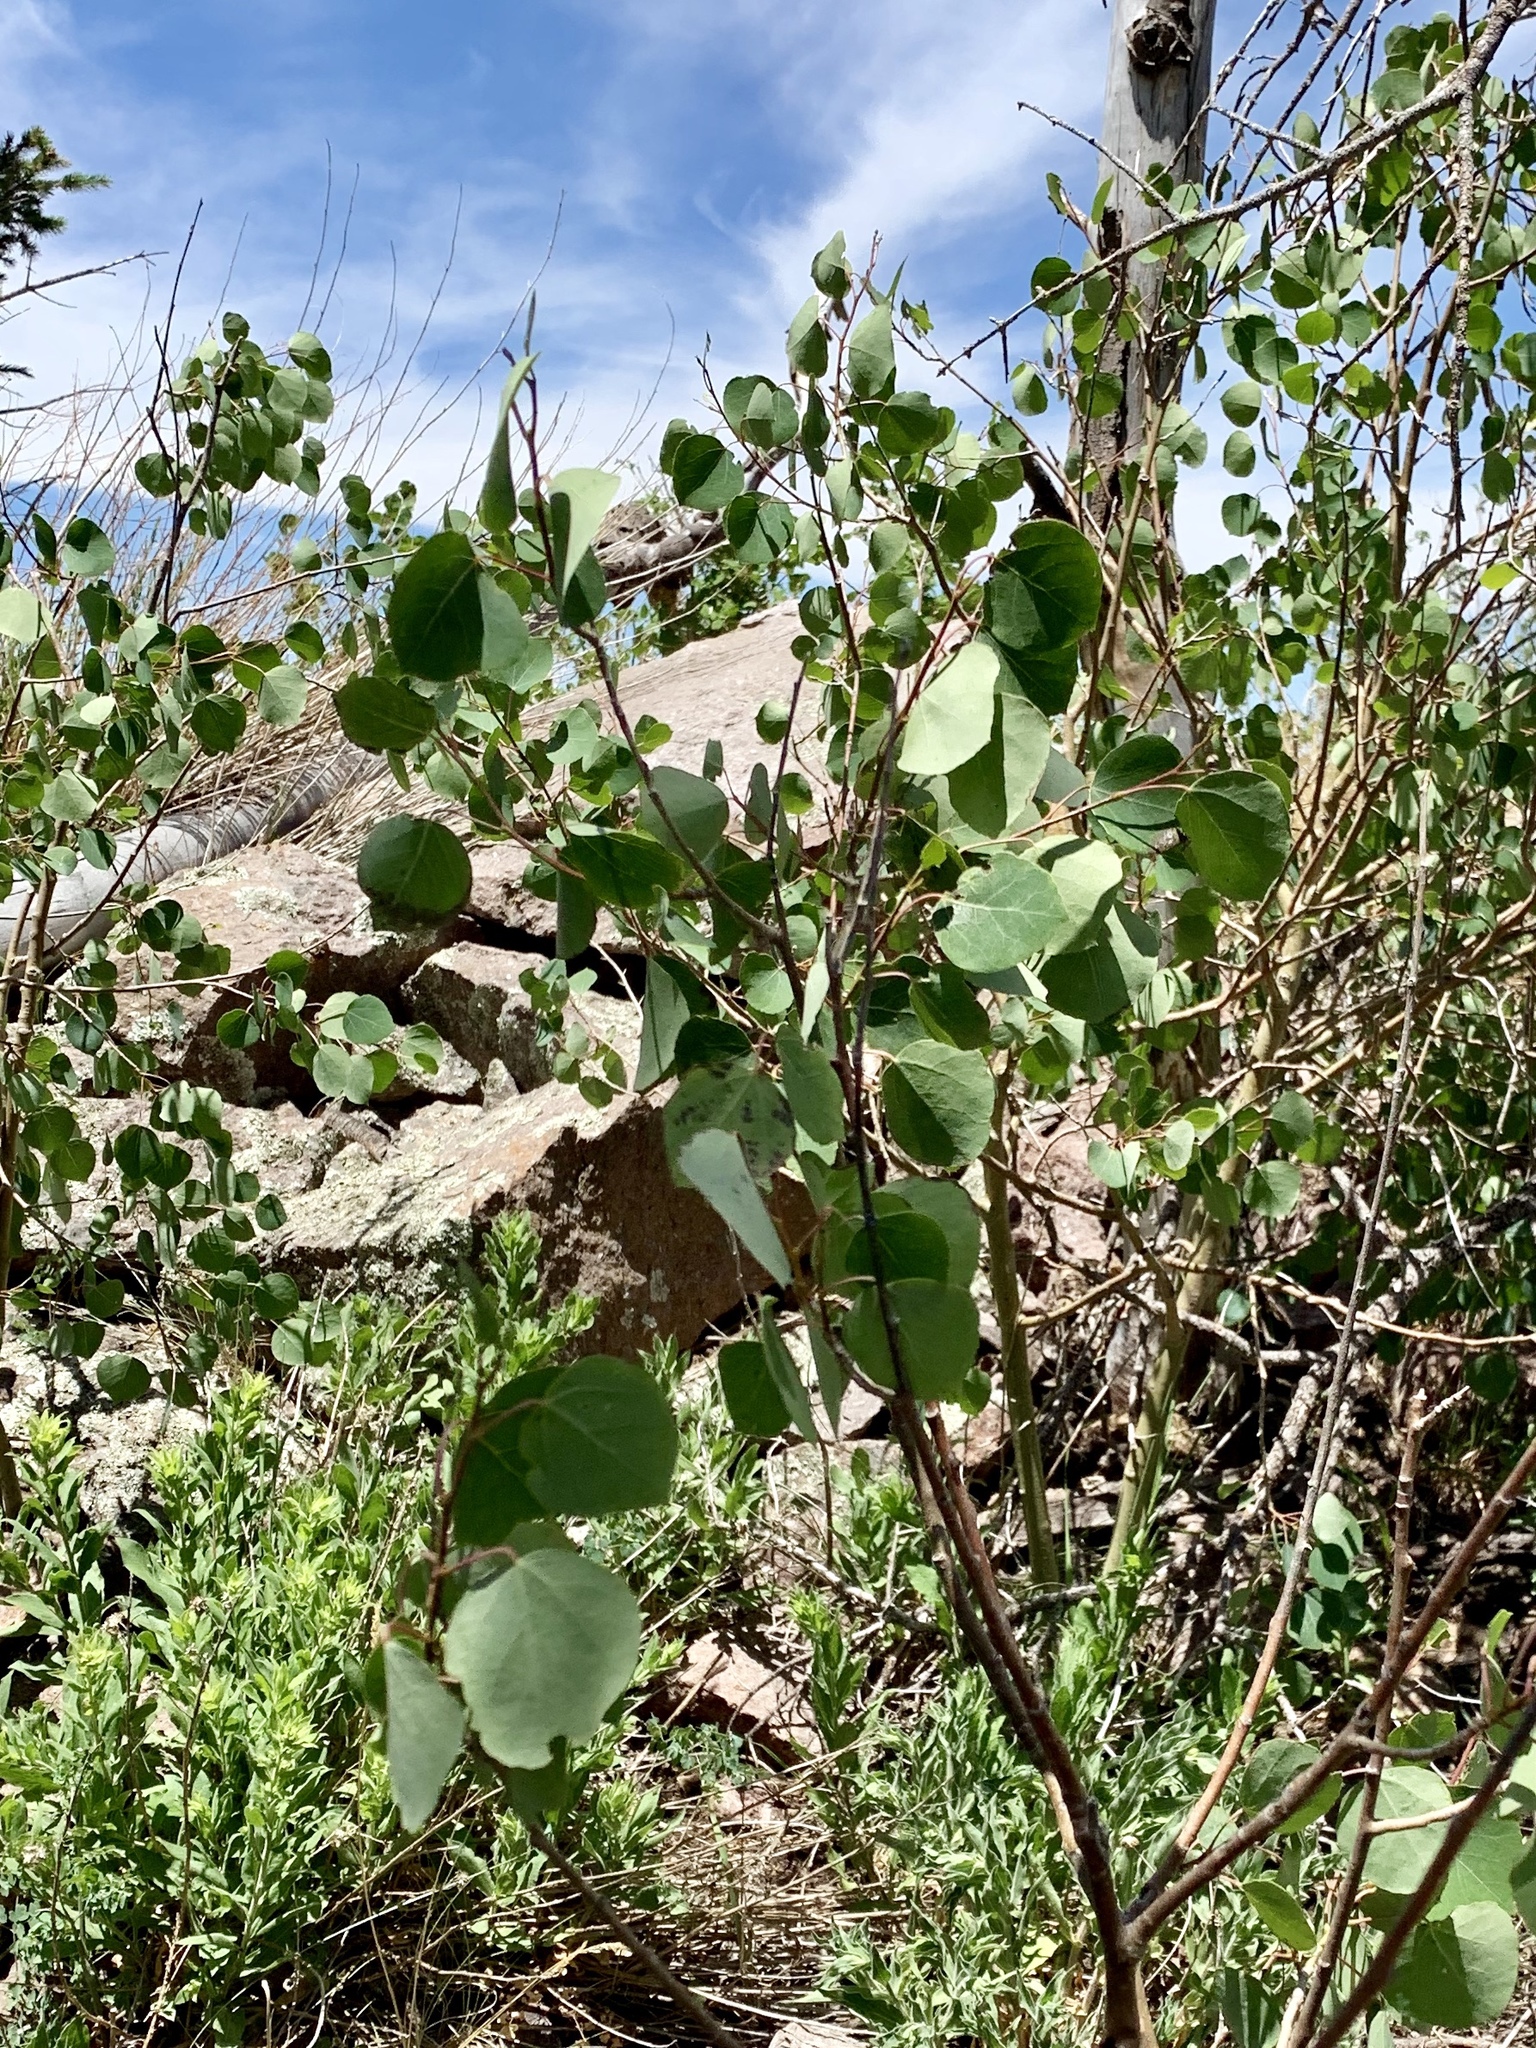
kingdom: Plantae
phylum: Tracheophyta
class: Magnoliopsida
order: Malpighiales
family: Salicaceae
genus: Populus
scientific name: Populus tremuloides
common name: Quaking aspen
